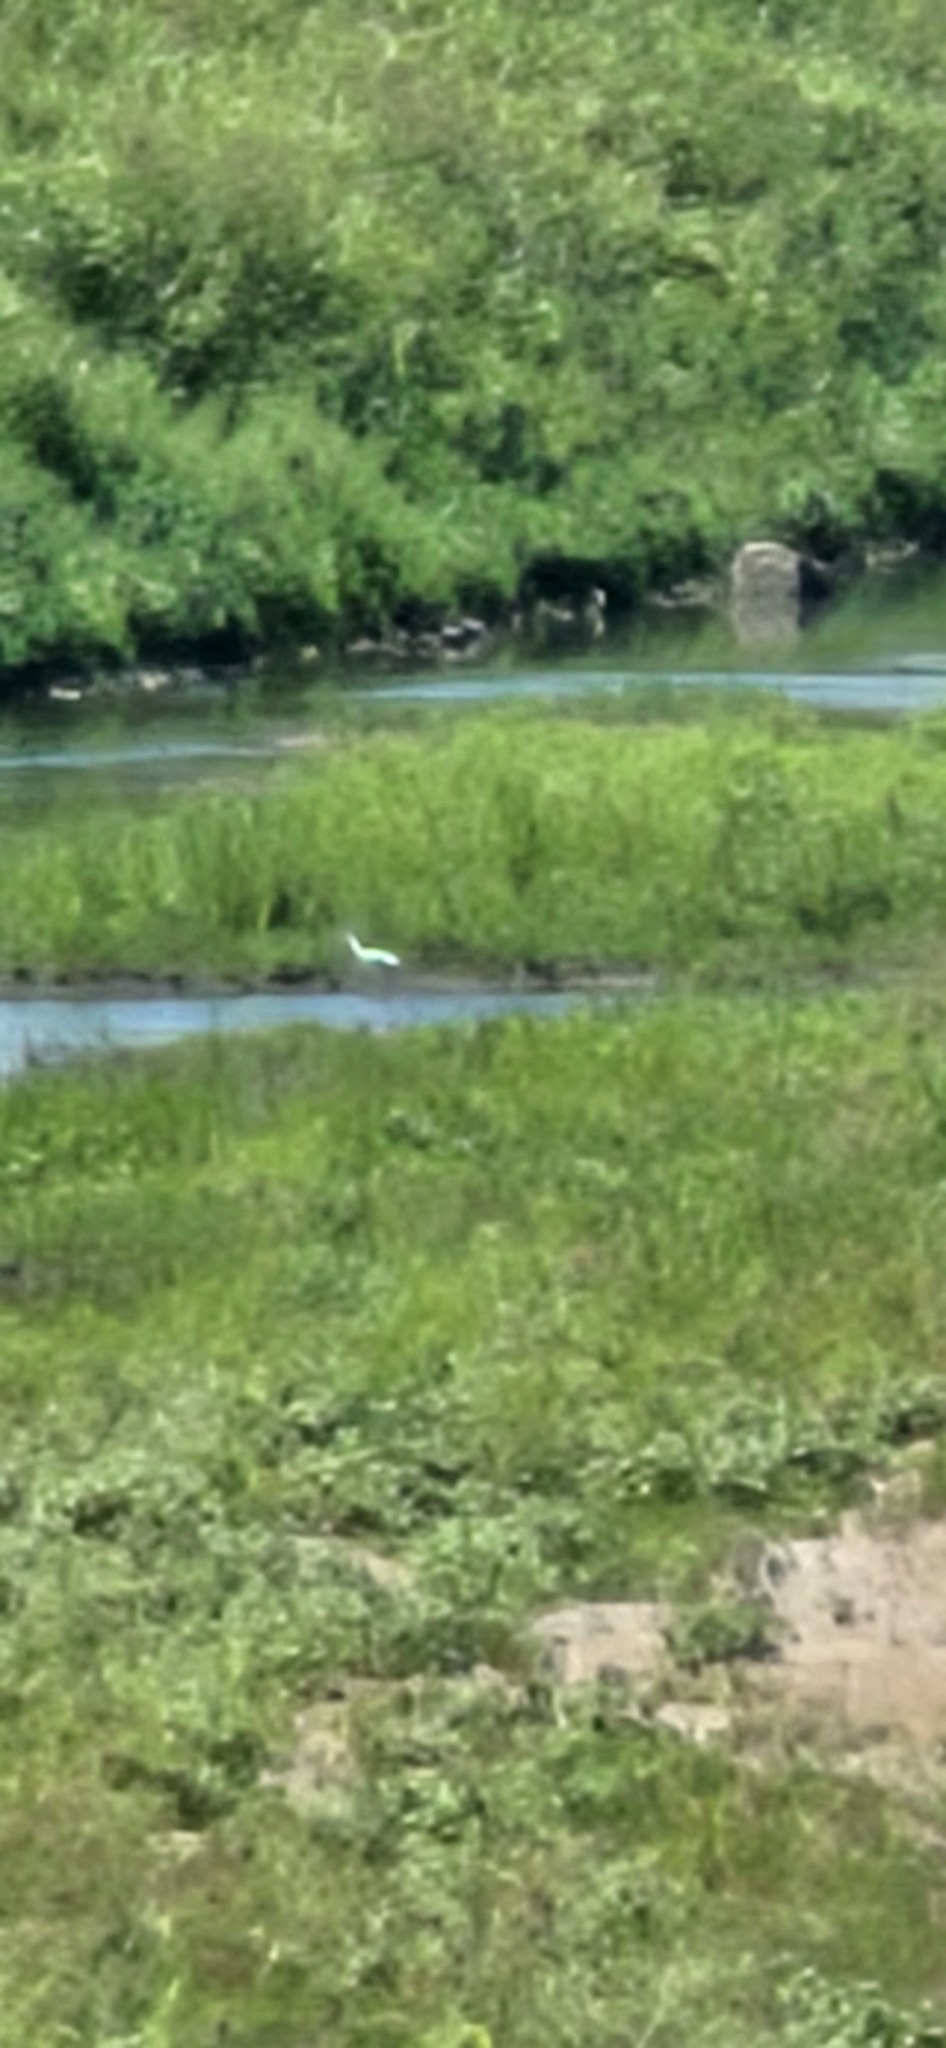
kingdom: Animalia
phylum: Chordata
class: Aves
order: Pelecaniformes
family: Ardeidae
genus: Ardea
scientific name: Ardea alba
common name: Great egret
